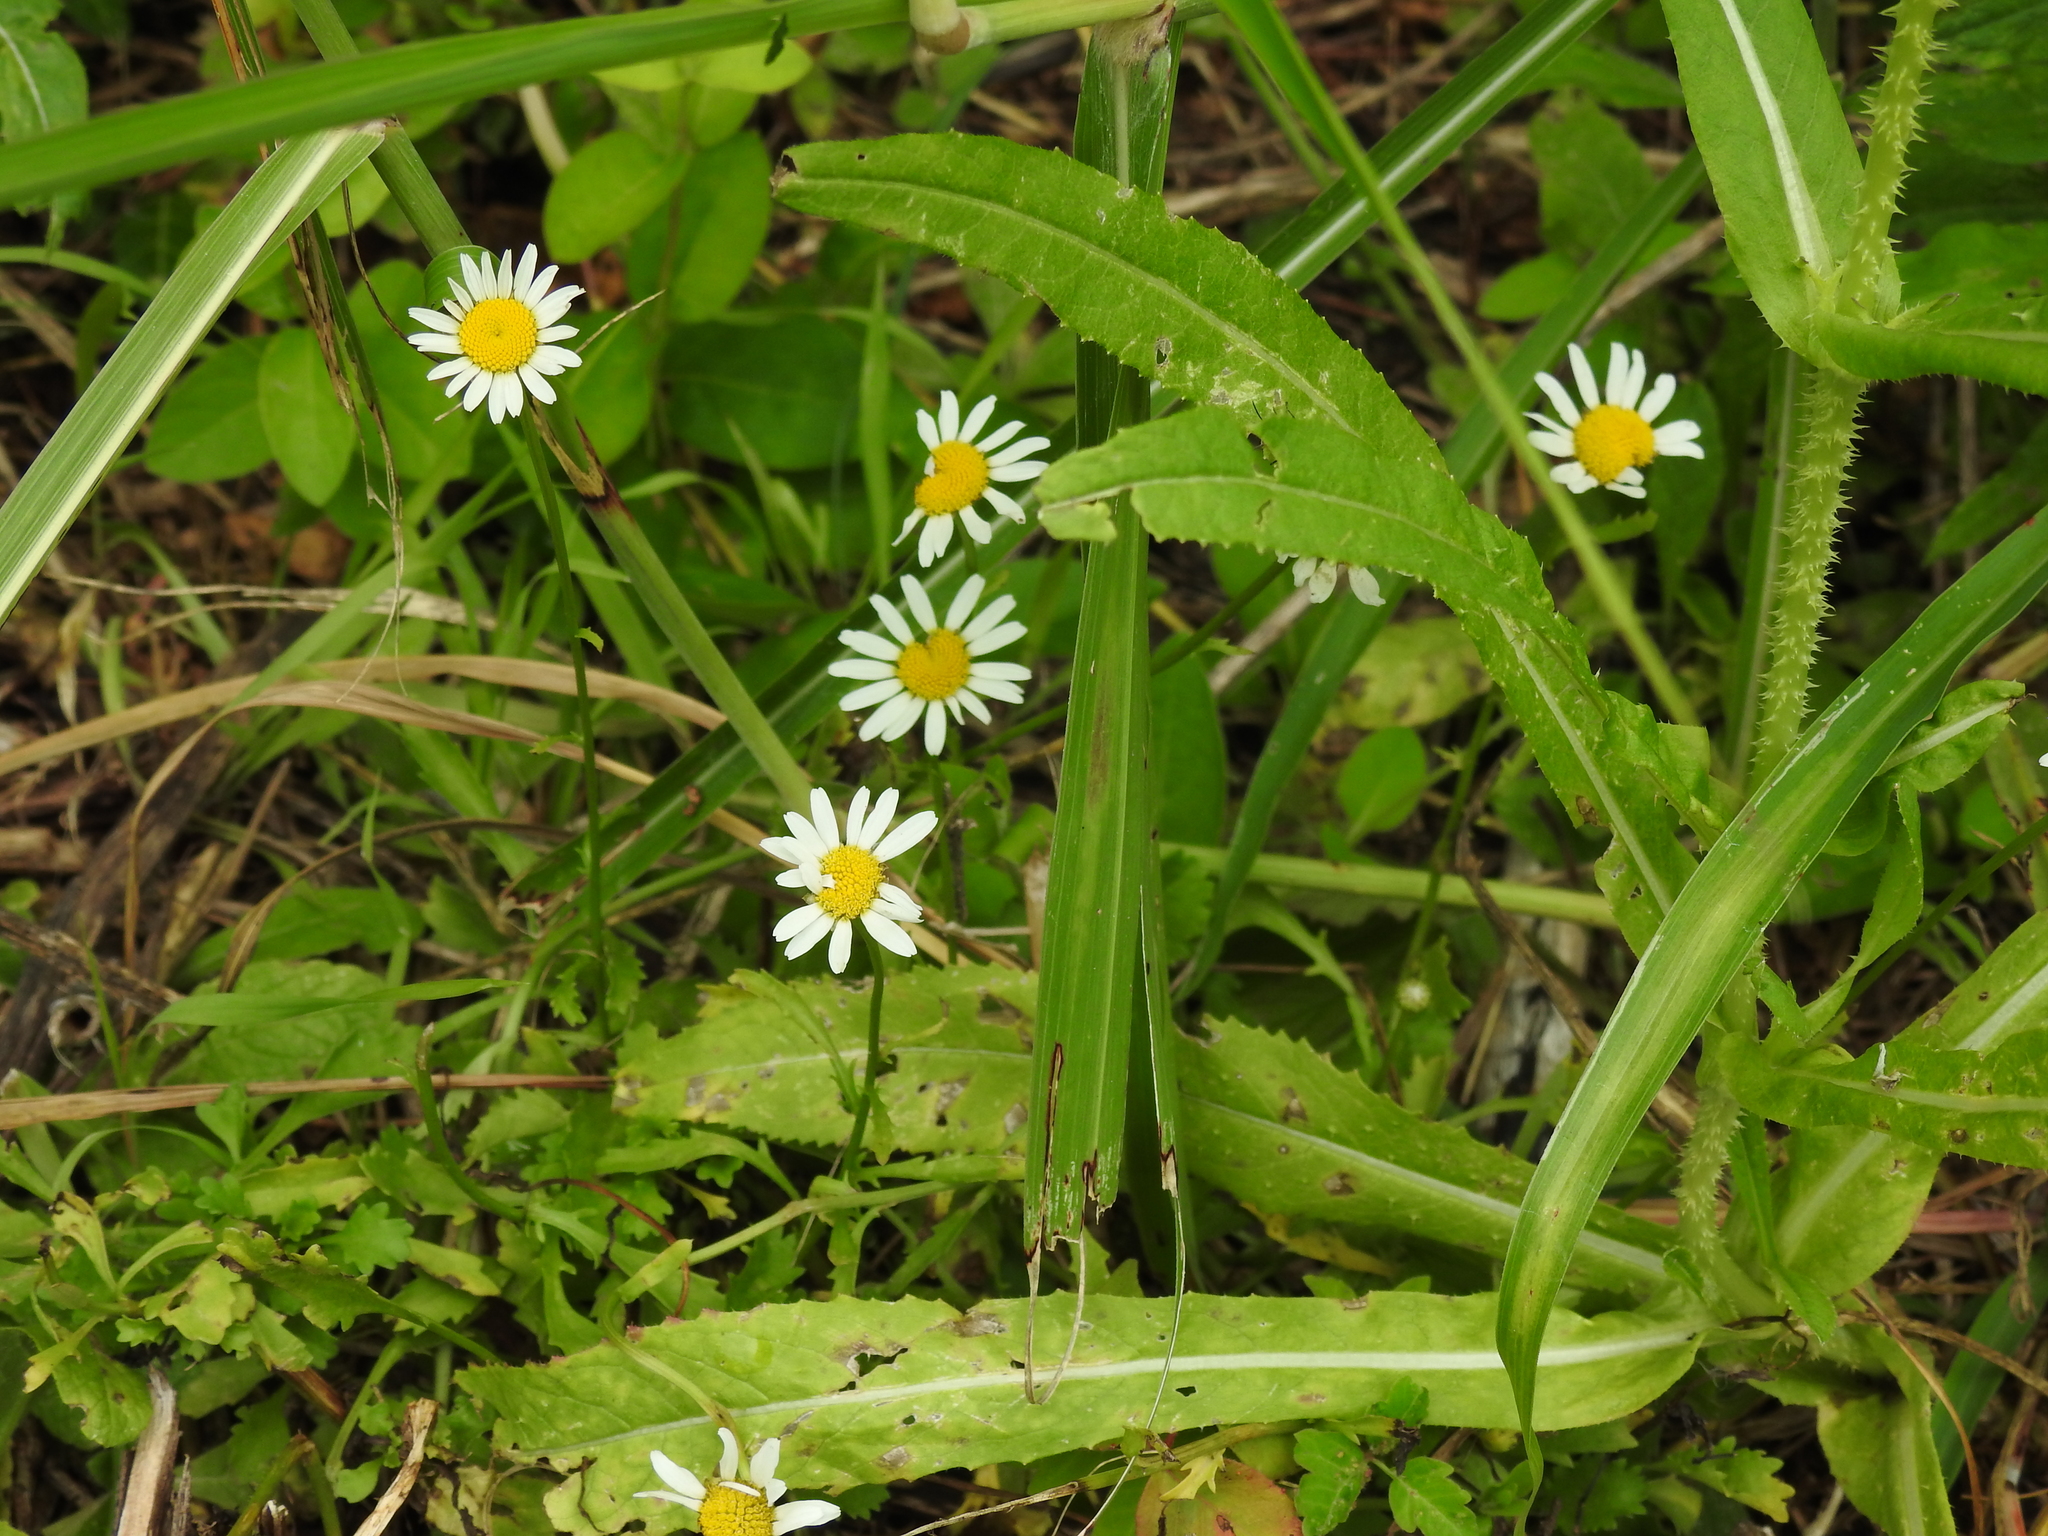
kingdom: Plantae
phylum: Tracheophyta
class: Magnoliopsida
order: Asterales
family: Asteraceae
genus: Leucanthemum
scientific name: Leucanthemum vulgare
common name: Oxeye daisy
